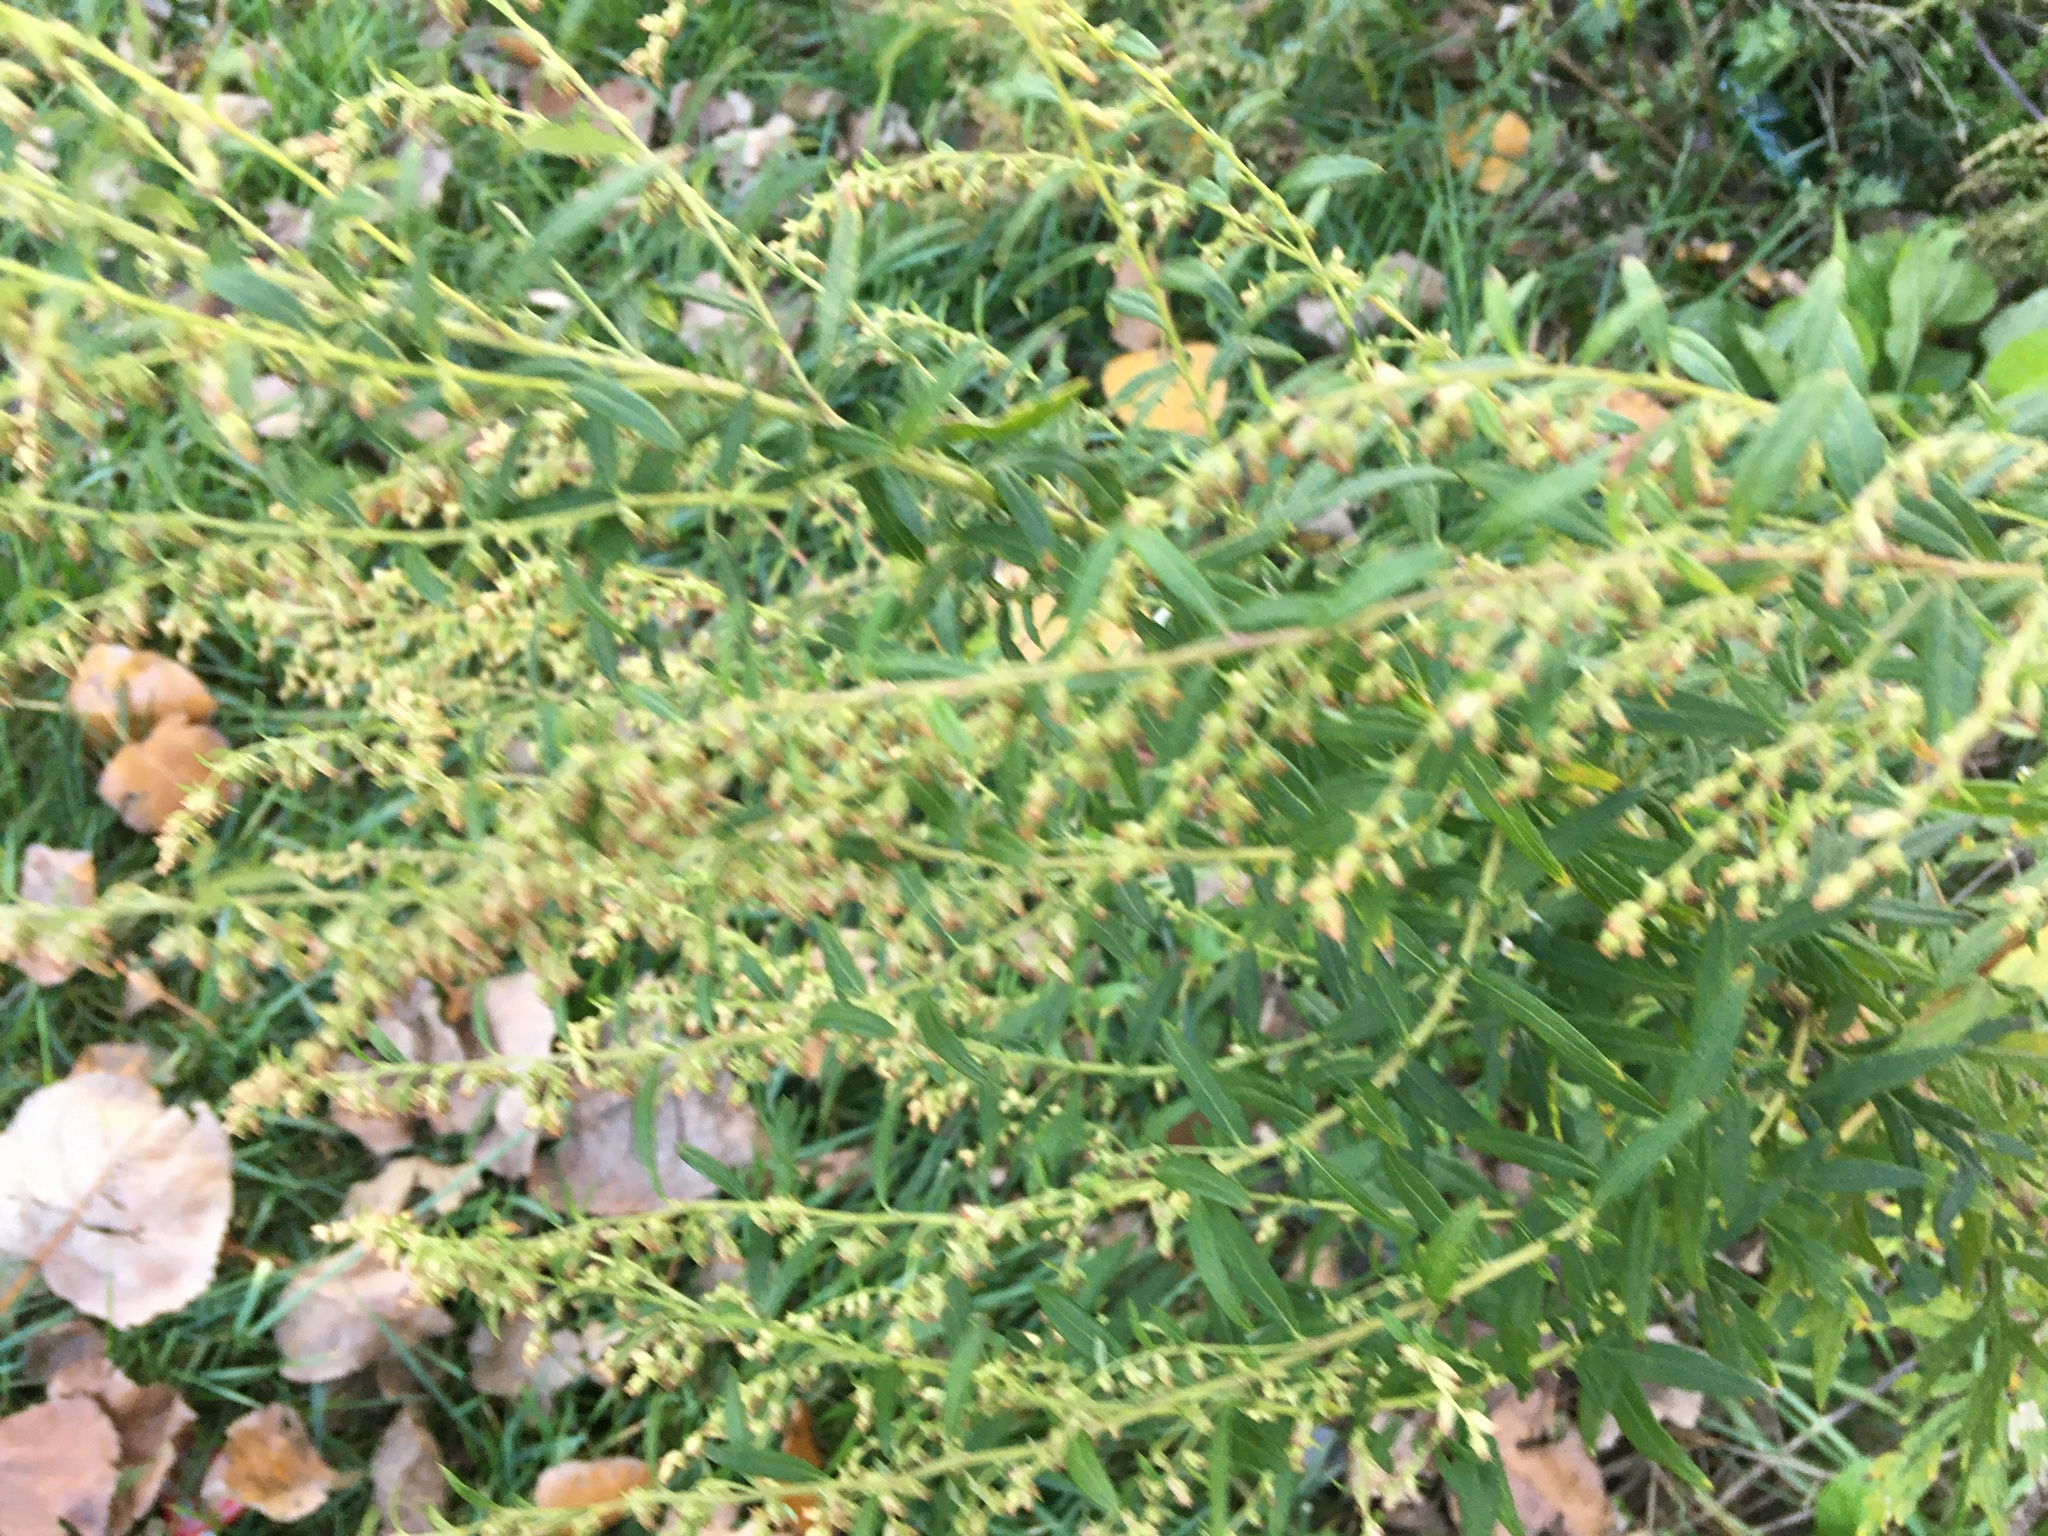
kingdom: Plantae
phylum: Tracheophyta
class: Magnoliopsida
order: Asterales
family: Asteraceae
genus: Artemisia
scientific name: Artemisia vulgaris
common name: Mugwort
